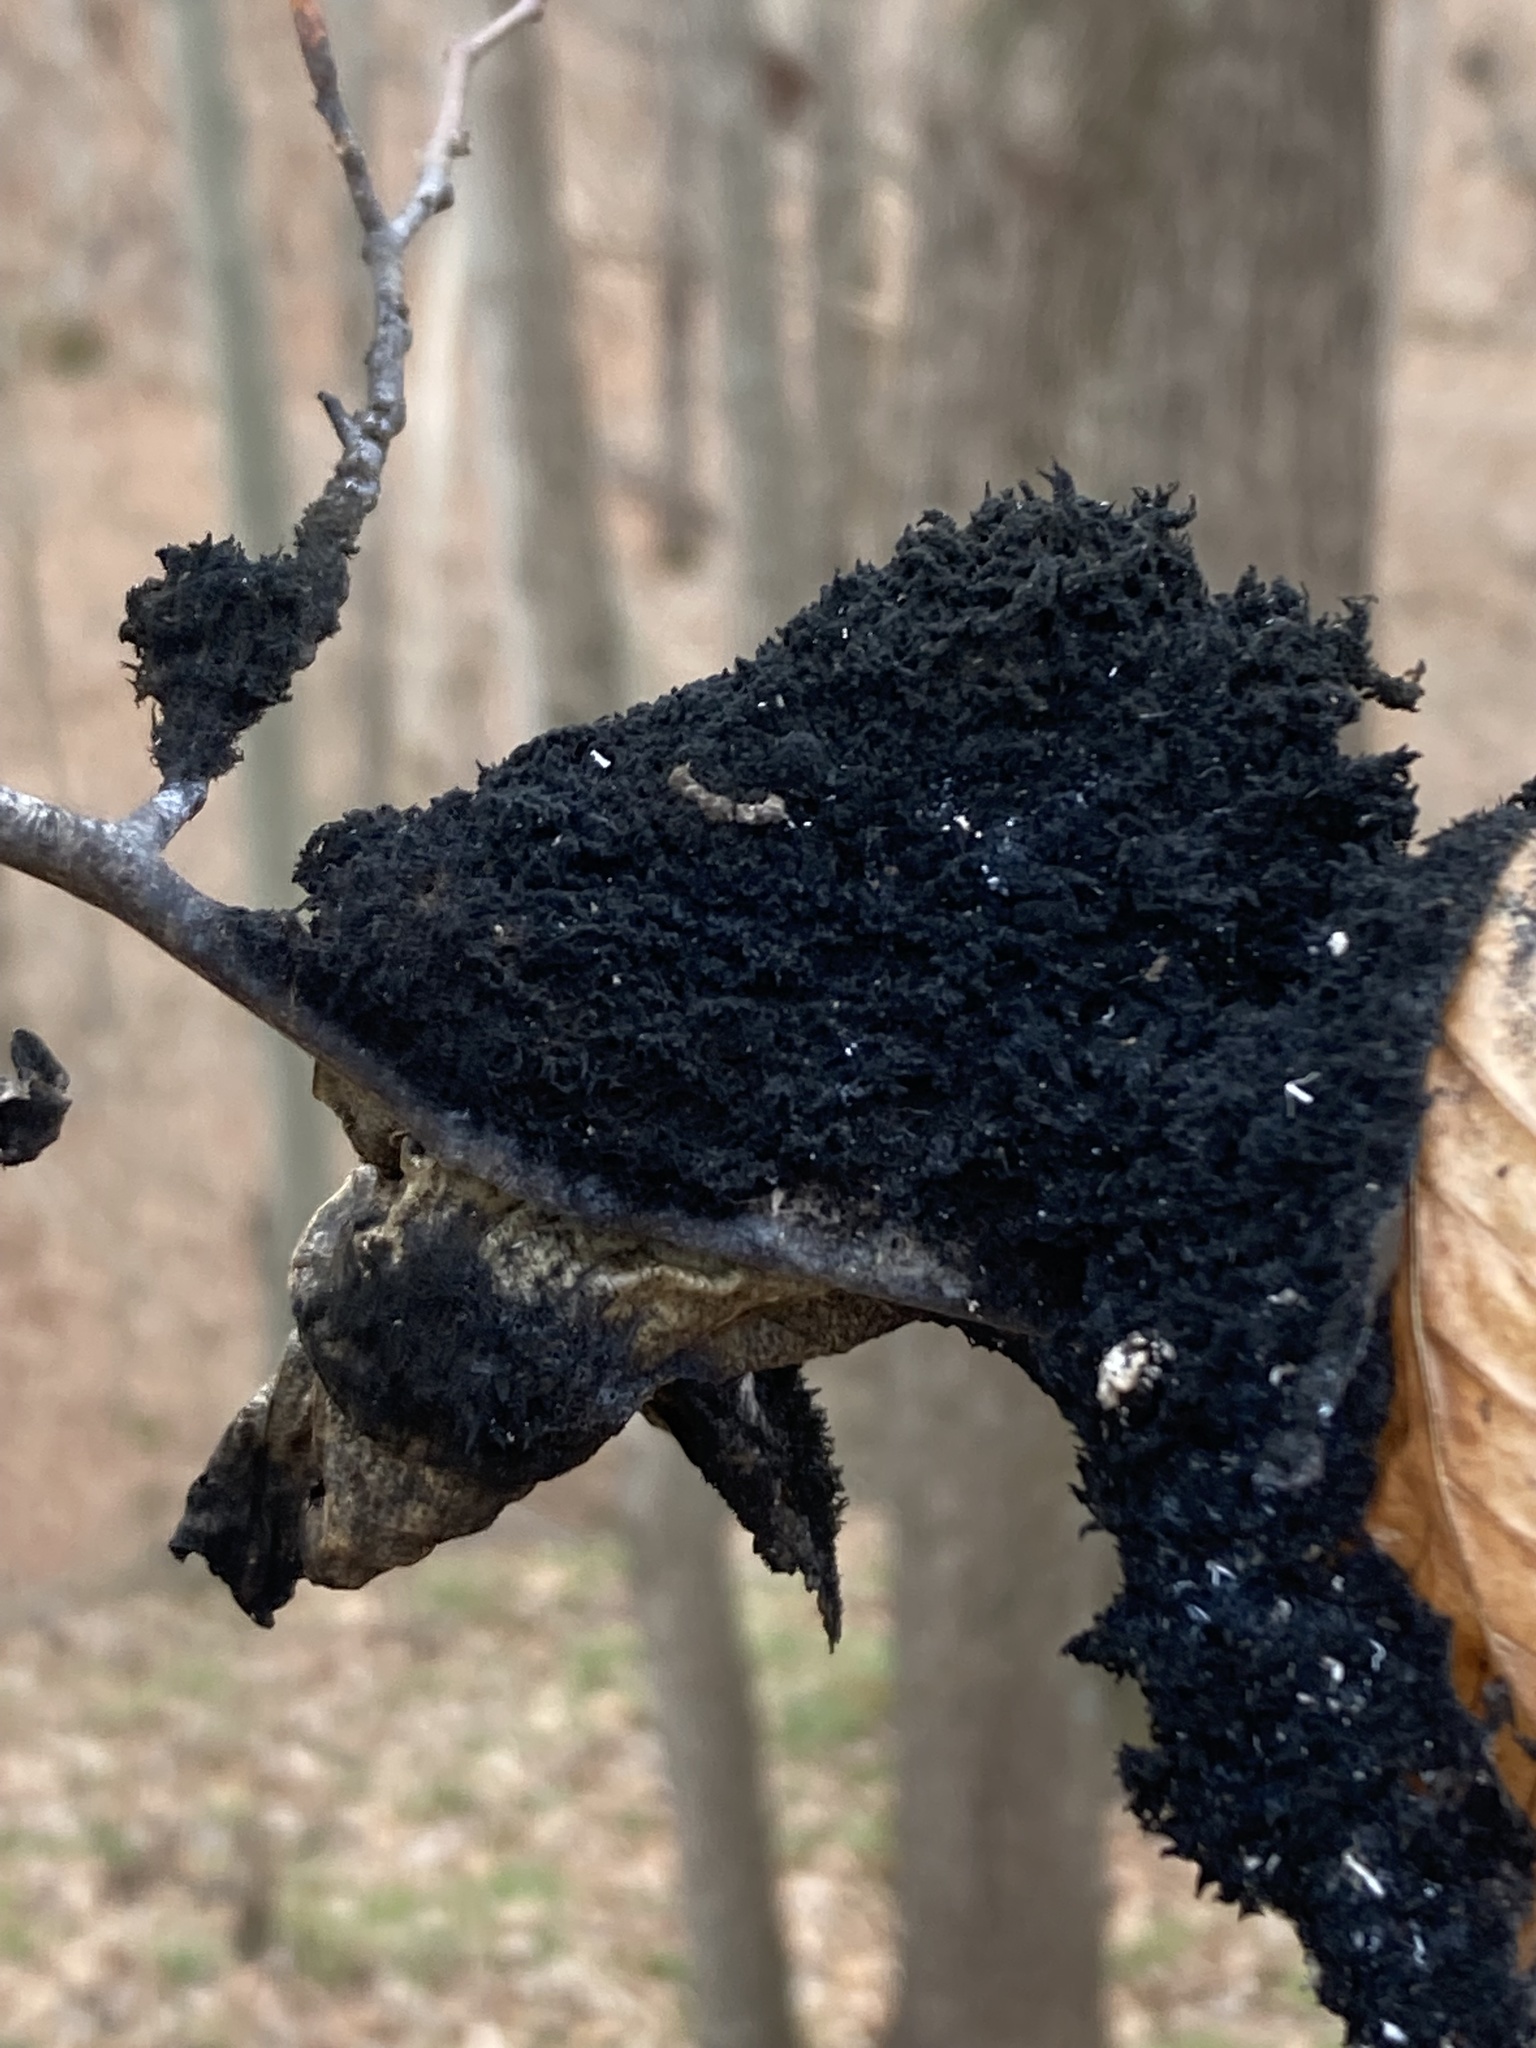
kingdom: Fungi
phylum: Ascomycota
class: Dothideomycetes
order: Capnodiales
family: Capnodiaceae
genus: Scorias
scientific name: Scorias spongiosa
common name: Black sooty mold
